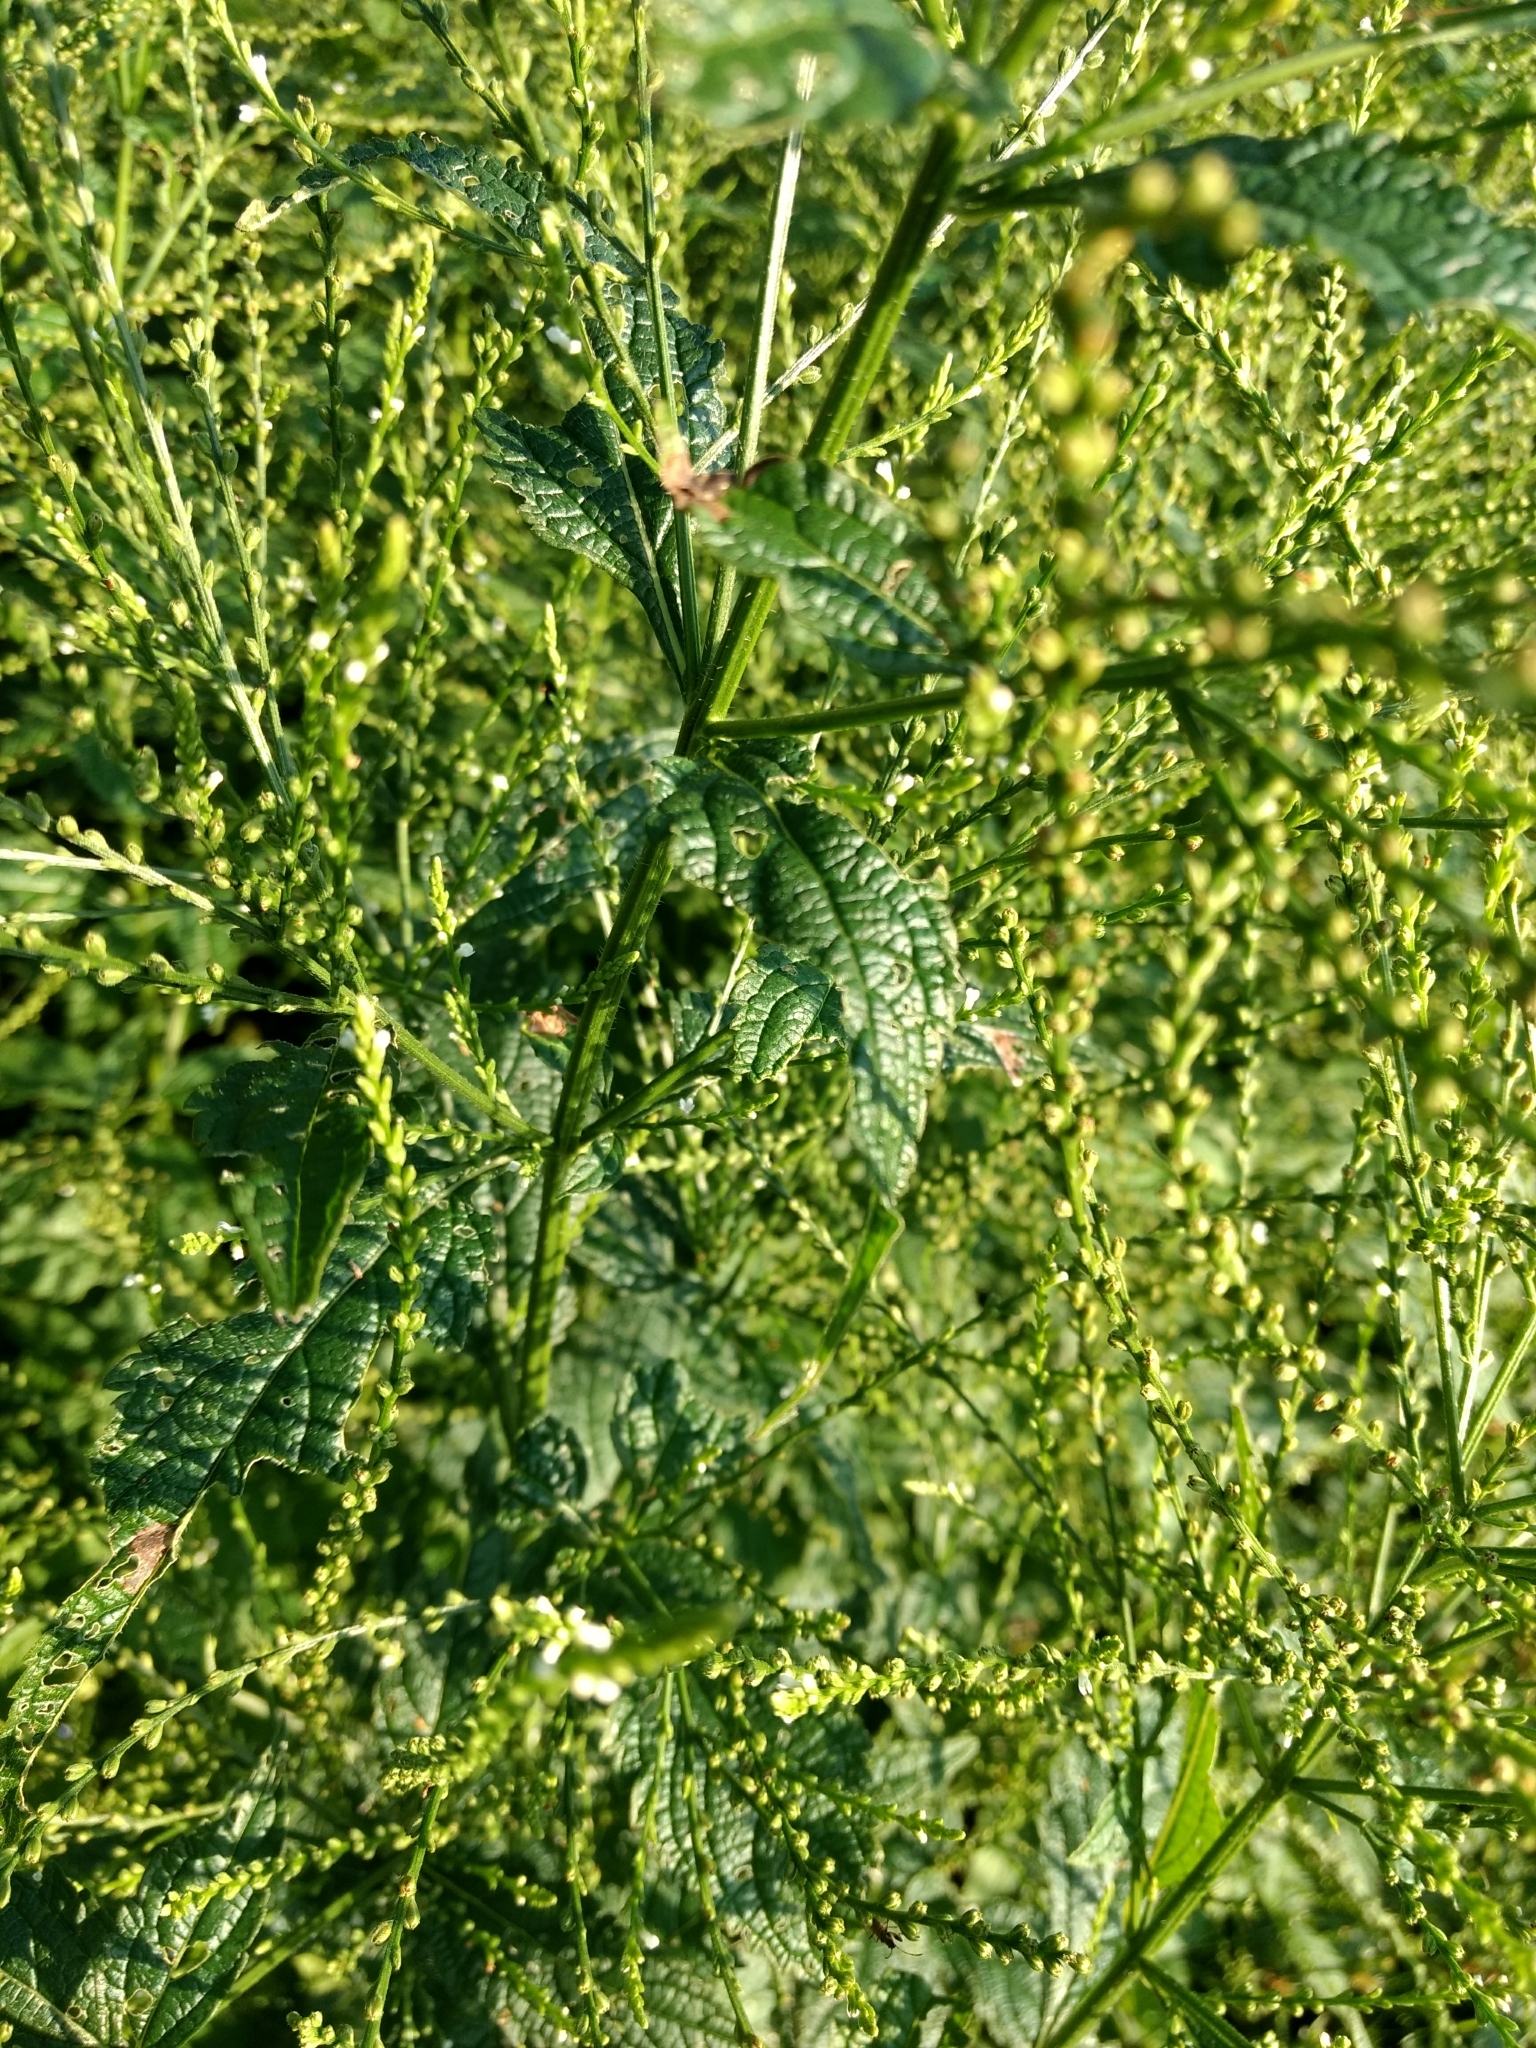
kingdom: Plantae
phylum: Tracheophyta
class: Magnoliopsida
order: Lamiales
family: Verbenaceae
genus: Verbena
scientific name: Verbena urticifolia
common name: Nettle-leaved vervain
